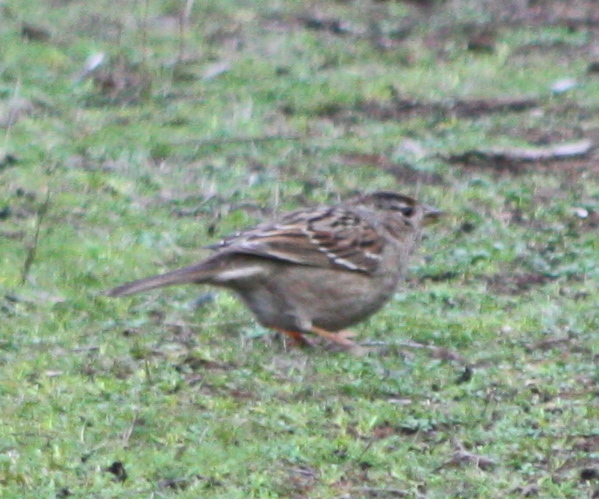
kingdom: Animalia
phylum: Chordata
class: Aves
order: Passeriformes
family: Passerellidae
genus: Zonotrichia
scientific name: Zonotrichia atricapilla
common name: Golden-crowned sparrow
